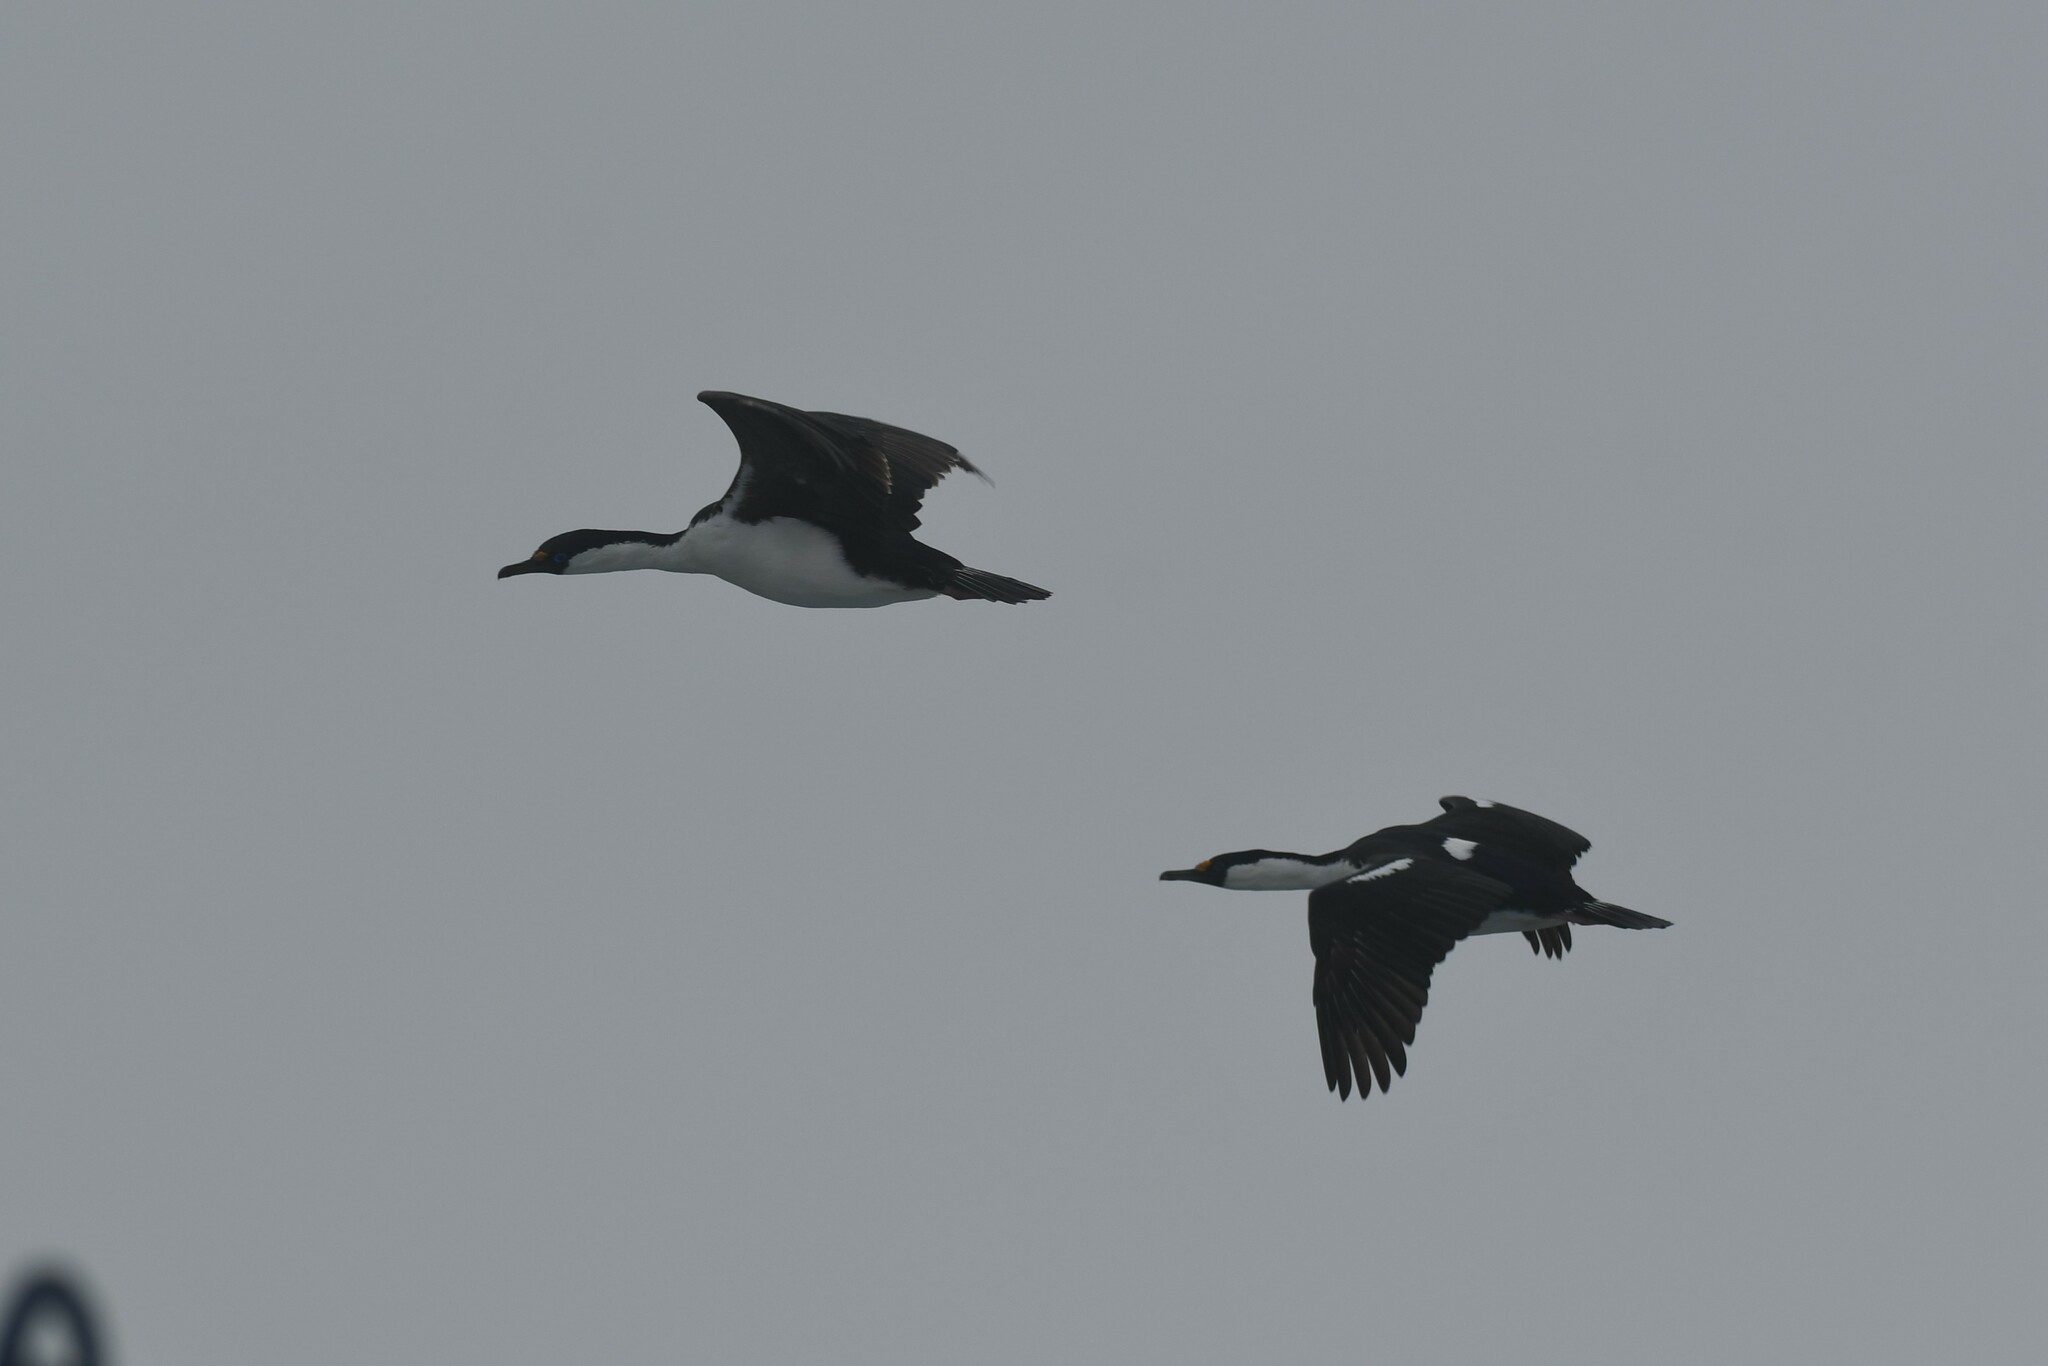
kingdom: Animalia
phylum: Chordata
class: Aves
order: Suliformes
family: Phalacrocoracidae
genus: Leucocarbo
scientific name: Leucocarbo atriceps
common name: Imperial shag
